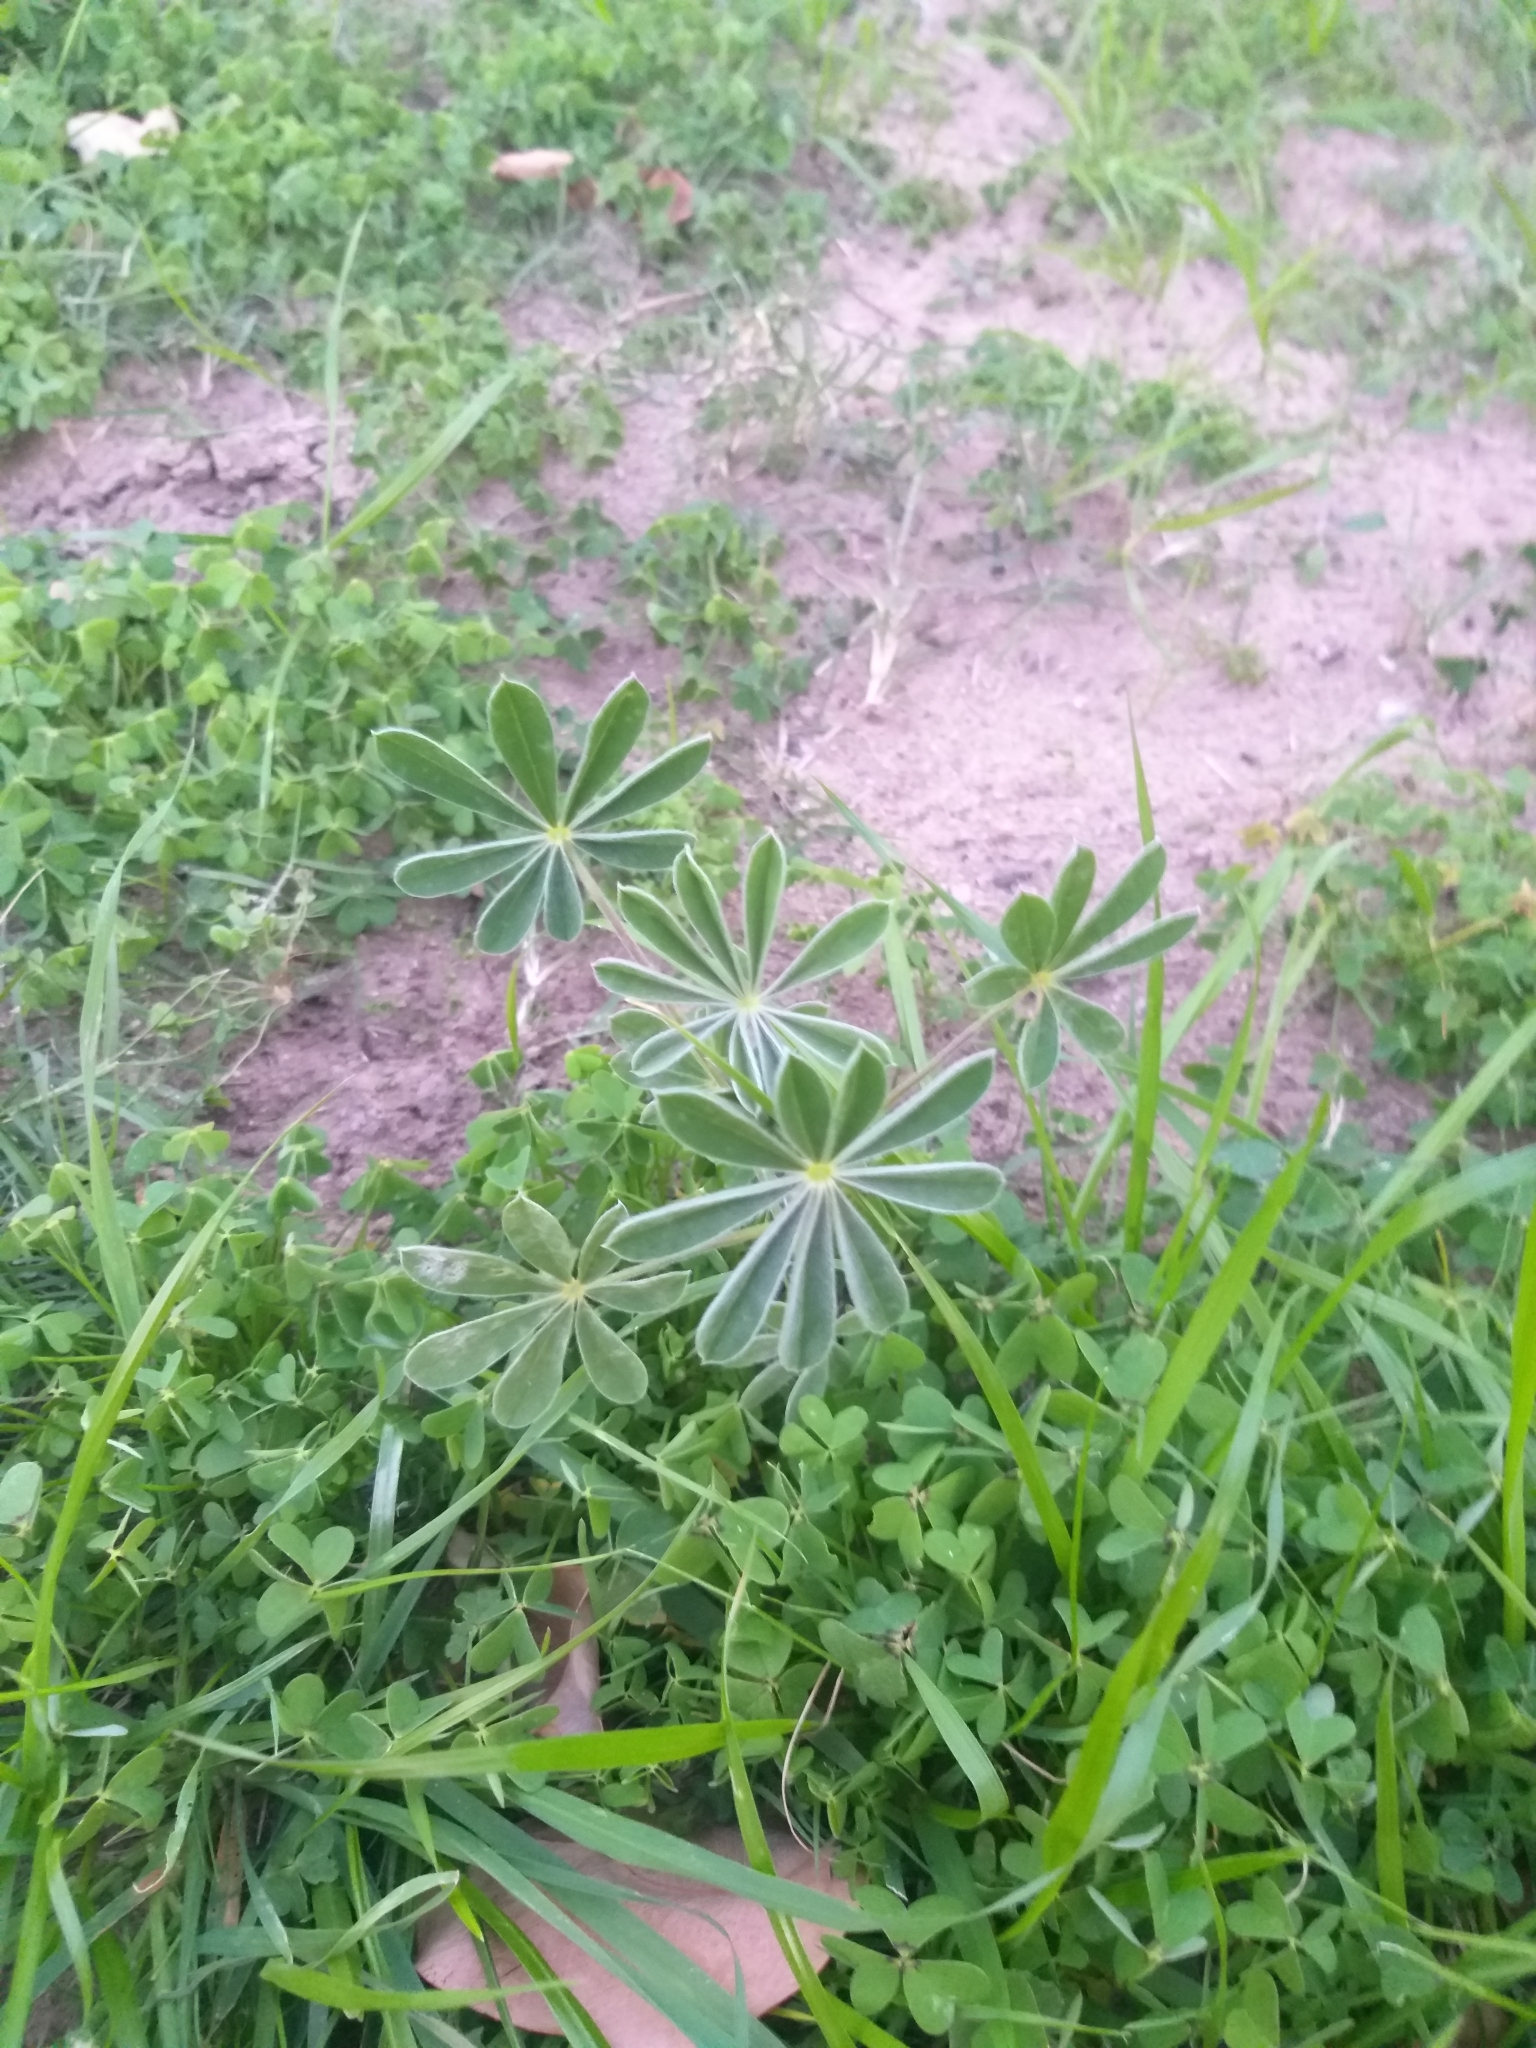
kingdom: Plantae
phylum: Tracheophyta
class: Magnoliopsida
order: Fabales
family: Fabaceae
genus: Lupinus
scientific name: Lupinus cosentinii
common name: Hairy blue lupin
